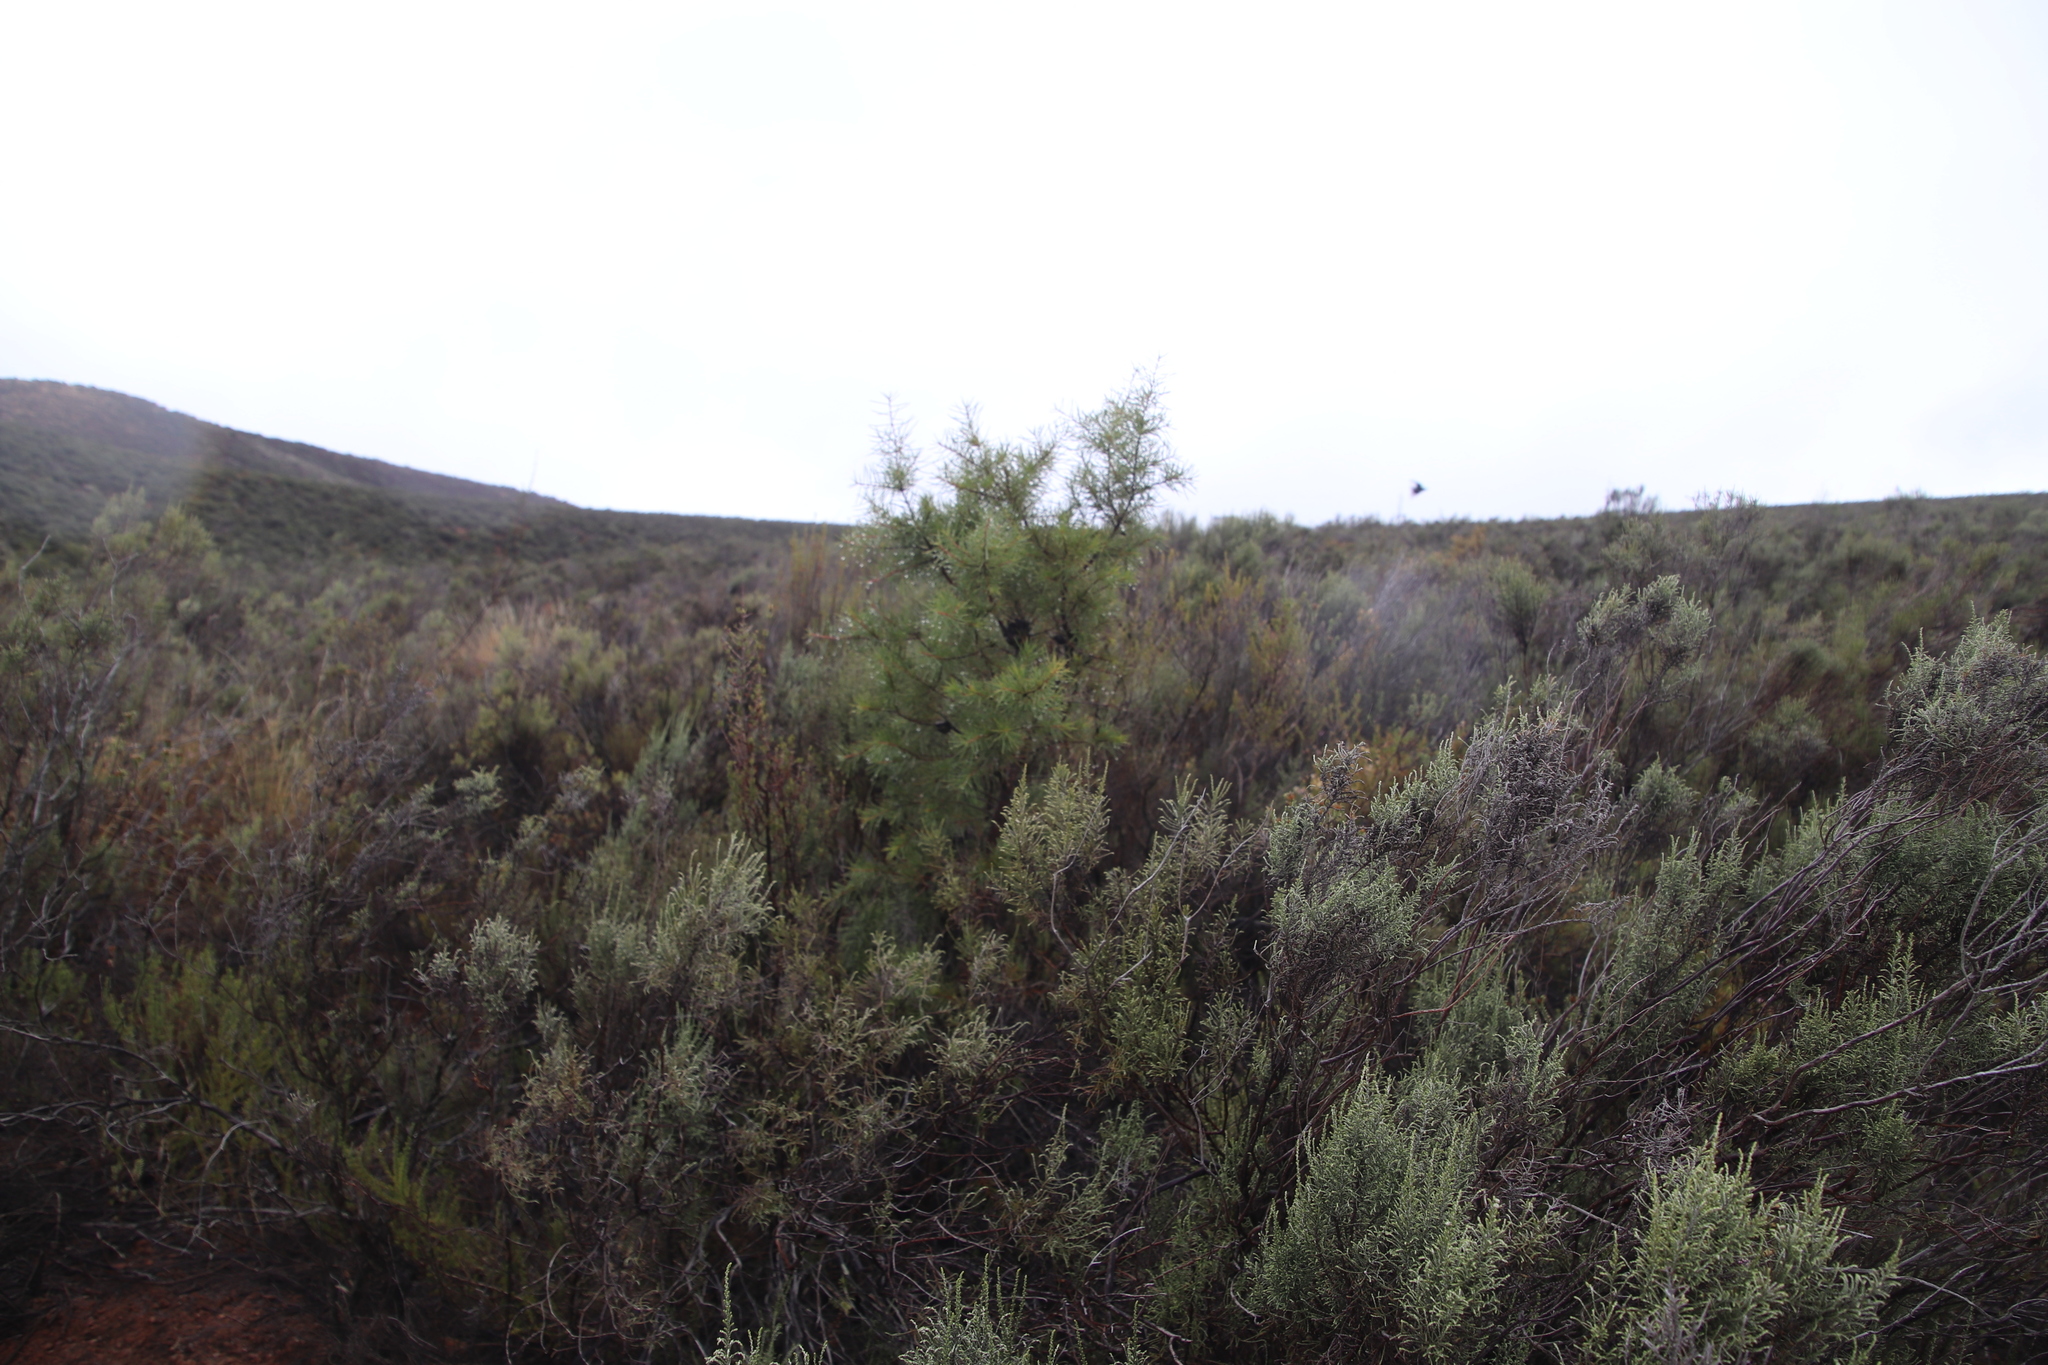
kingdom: Plantae
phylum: Tracheophyta
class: Magnoliopsida
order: Proteales
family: Proteaceae
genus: Hakea
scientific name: Hakea sericea
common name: Needle bush
